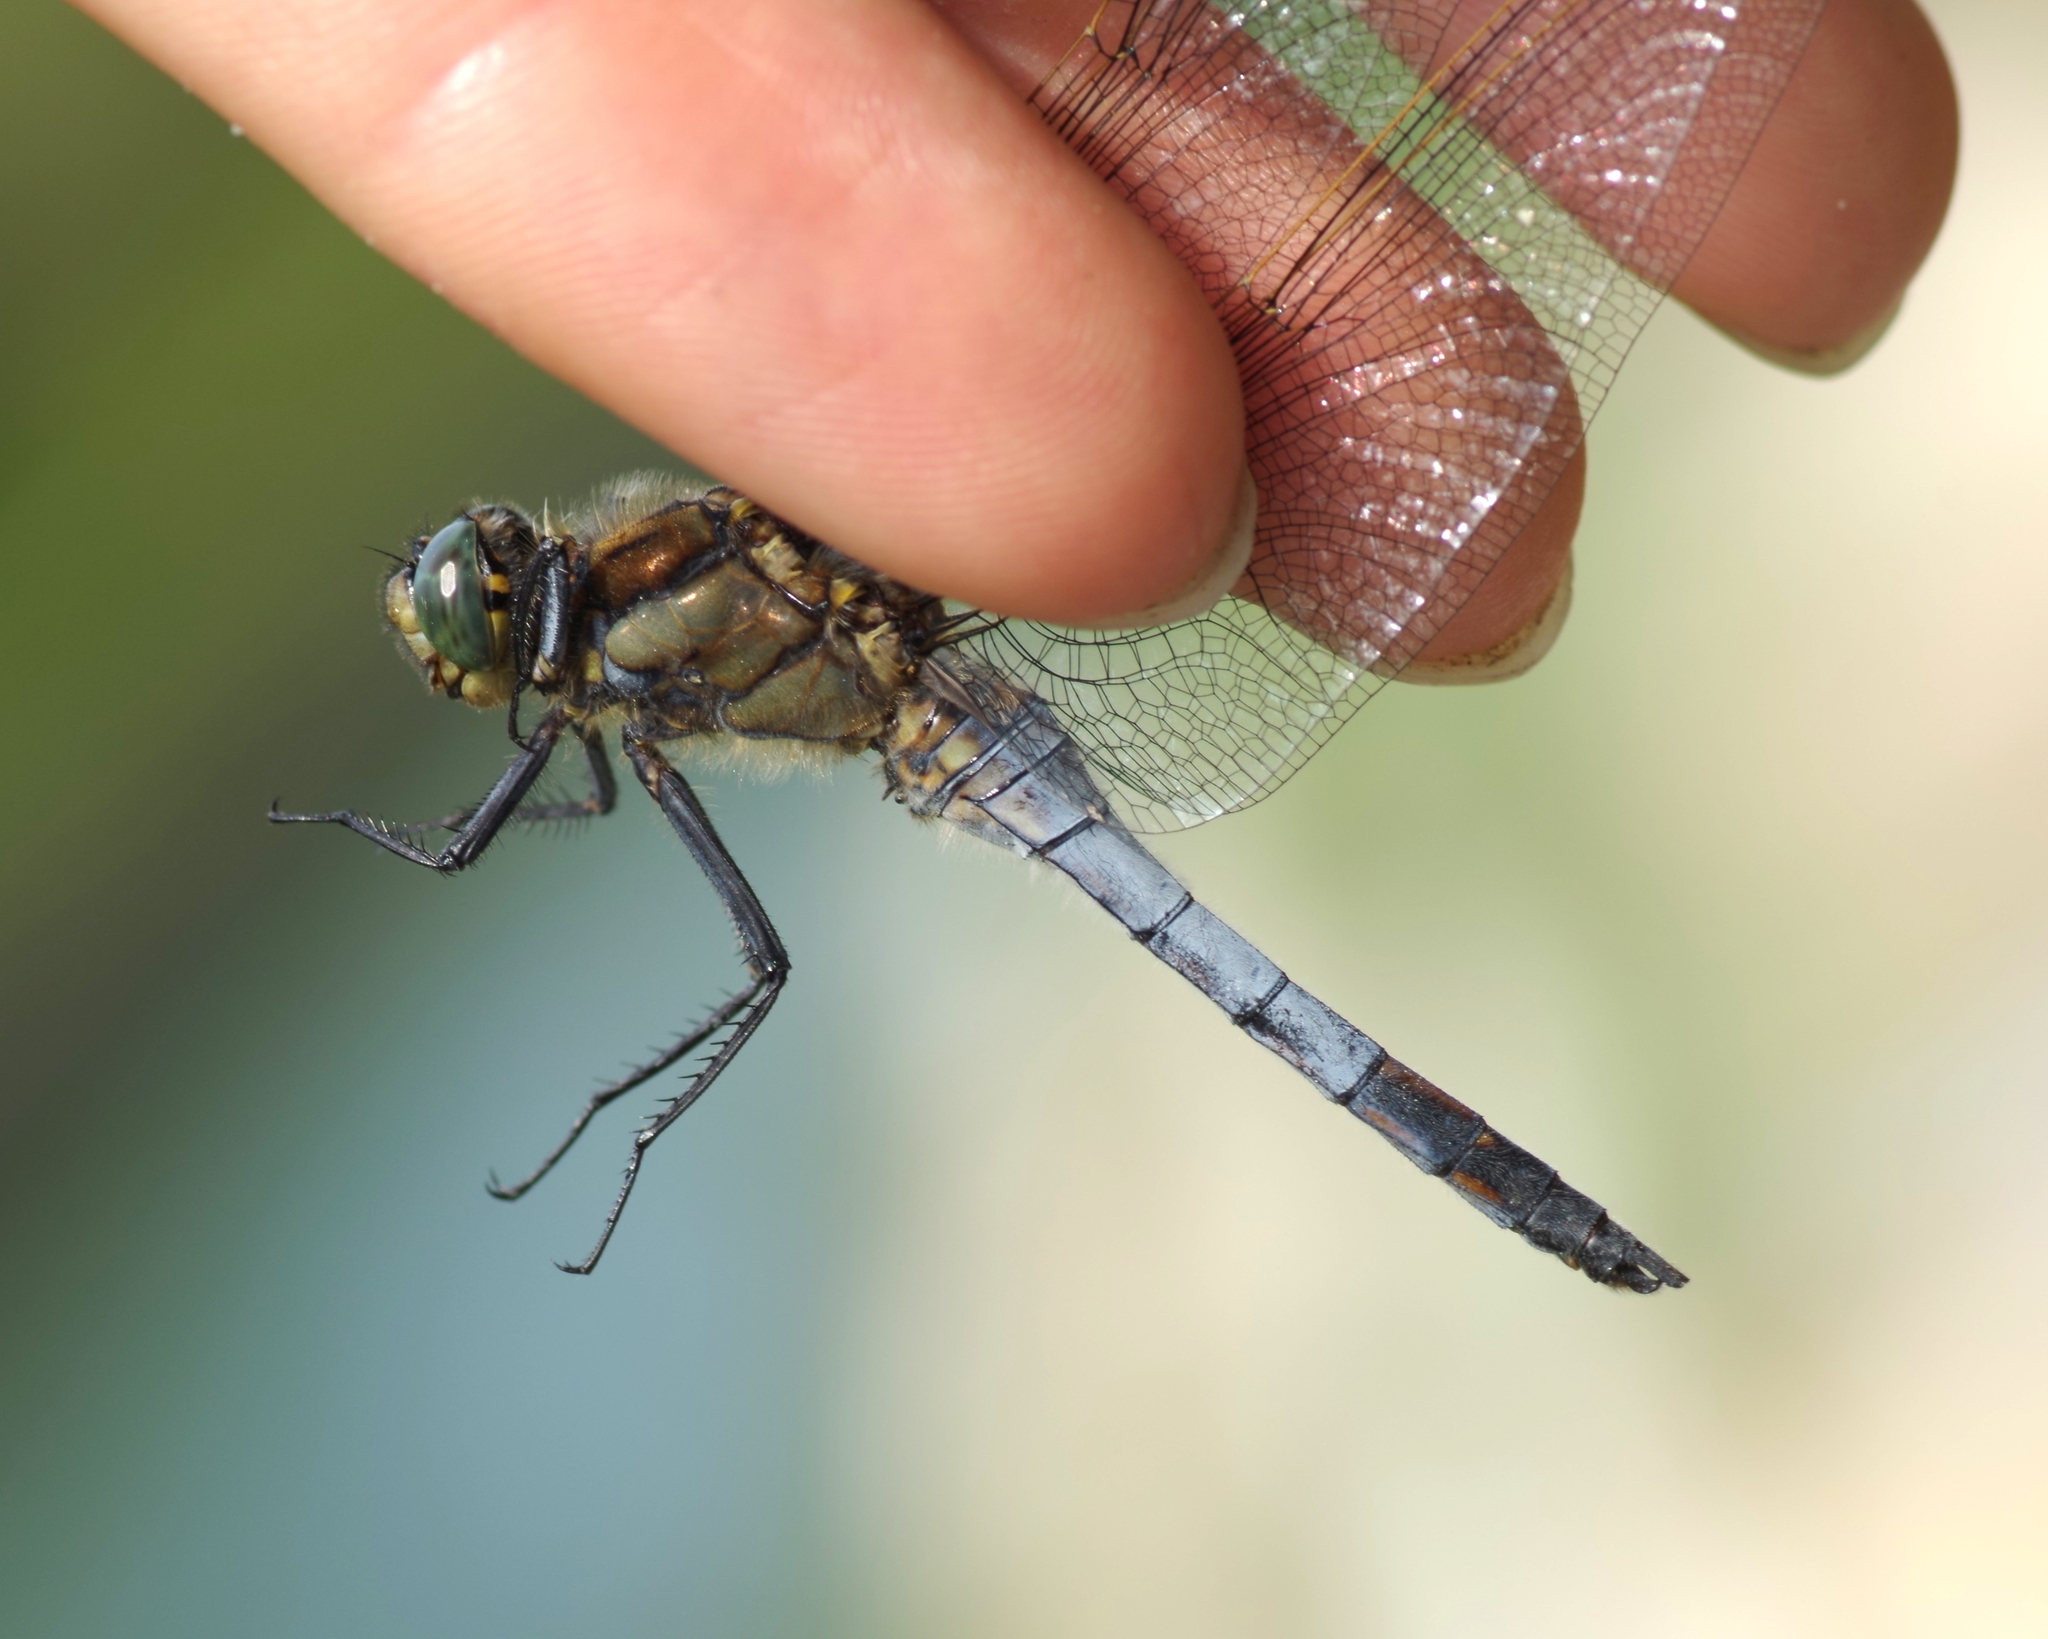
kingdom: Animalia
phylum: Arthropoda
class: Insecta
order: Odonata
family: Libellulidae
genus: Orthetrum
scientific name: Orthetrum cancellatum
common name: Black-tailed skimmer
